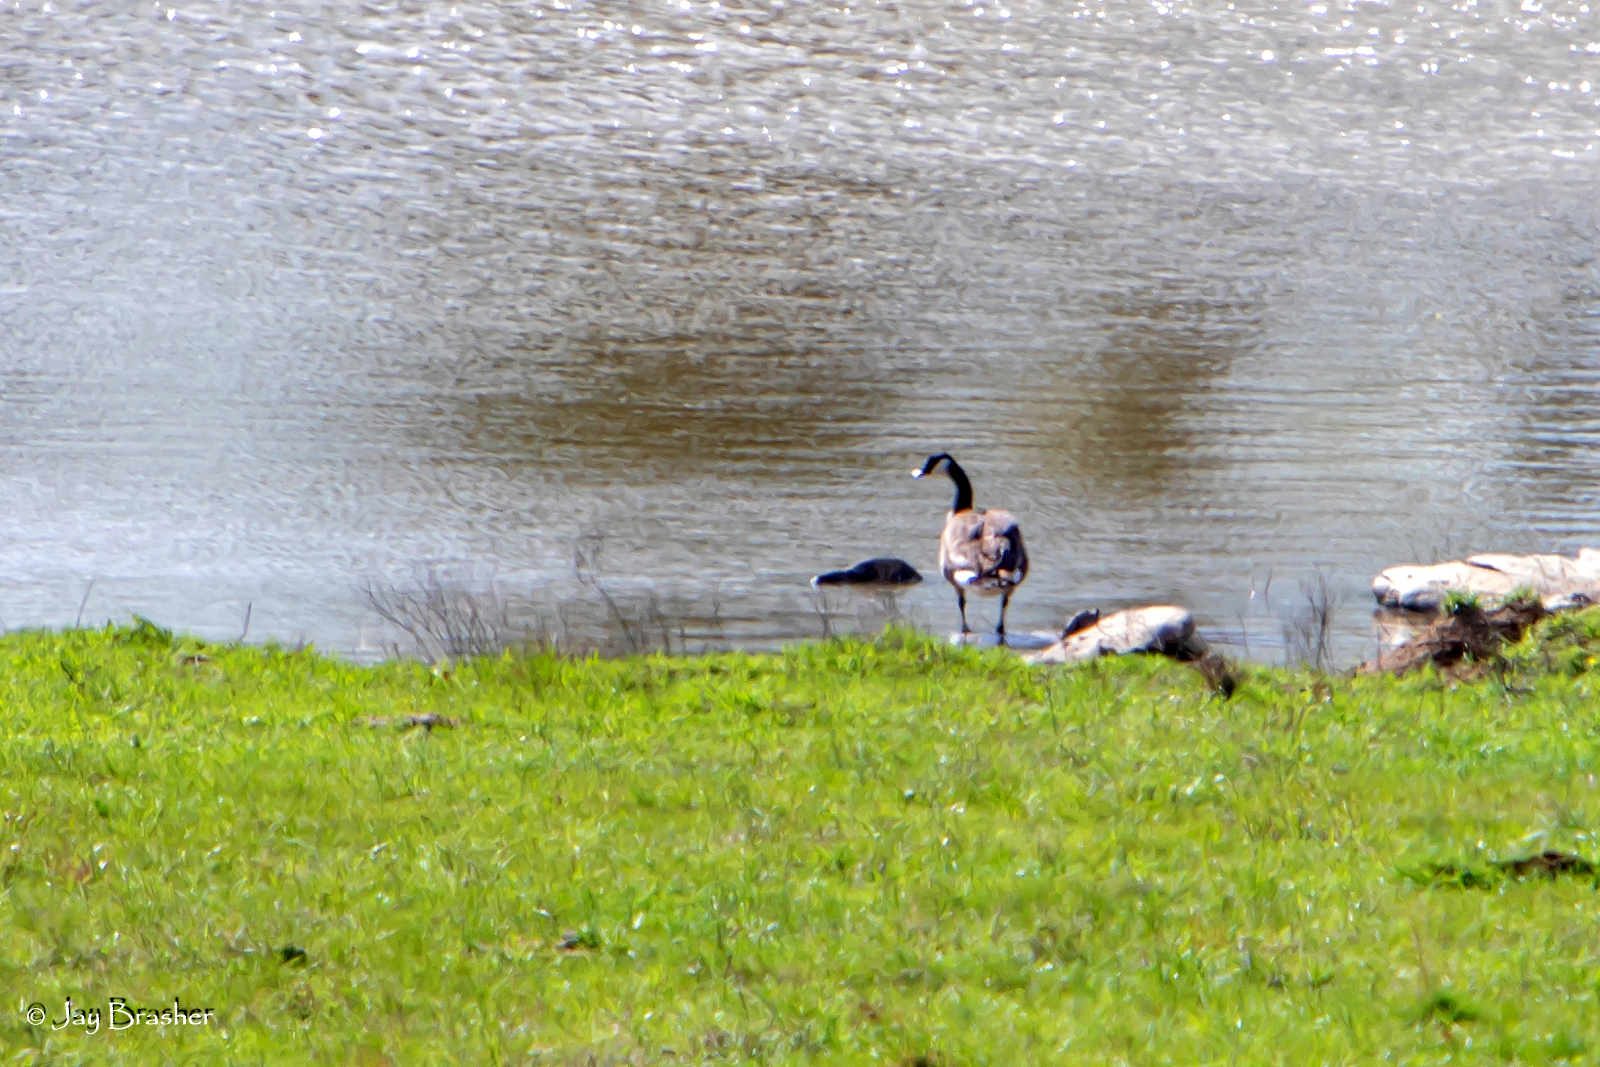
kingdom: Animalia
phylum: Chordata
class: Aves
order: Anseriformes
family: Anatidae
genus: Branta
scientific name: Branta canadensis
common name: Canada goose
